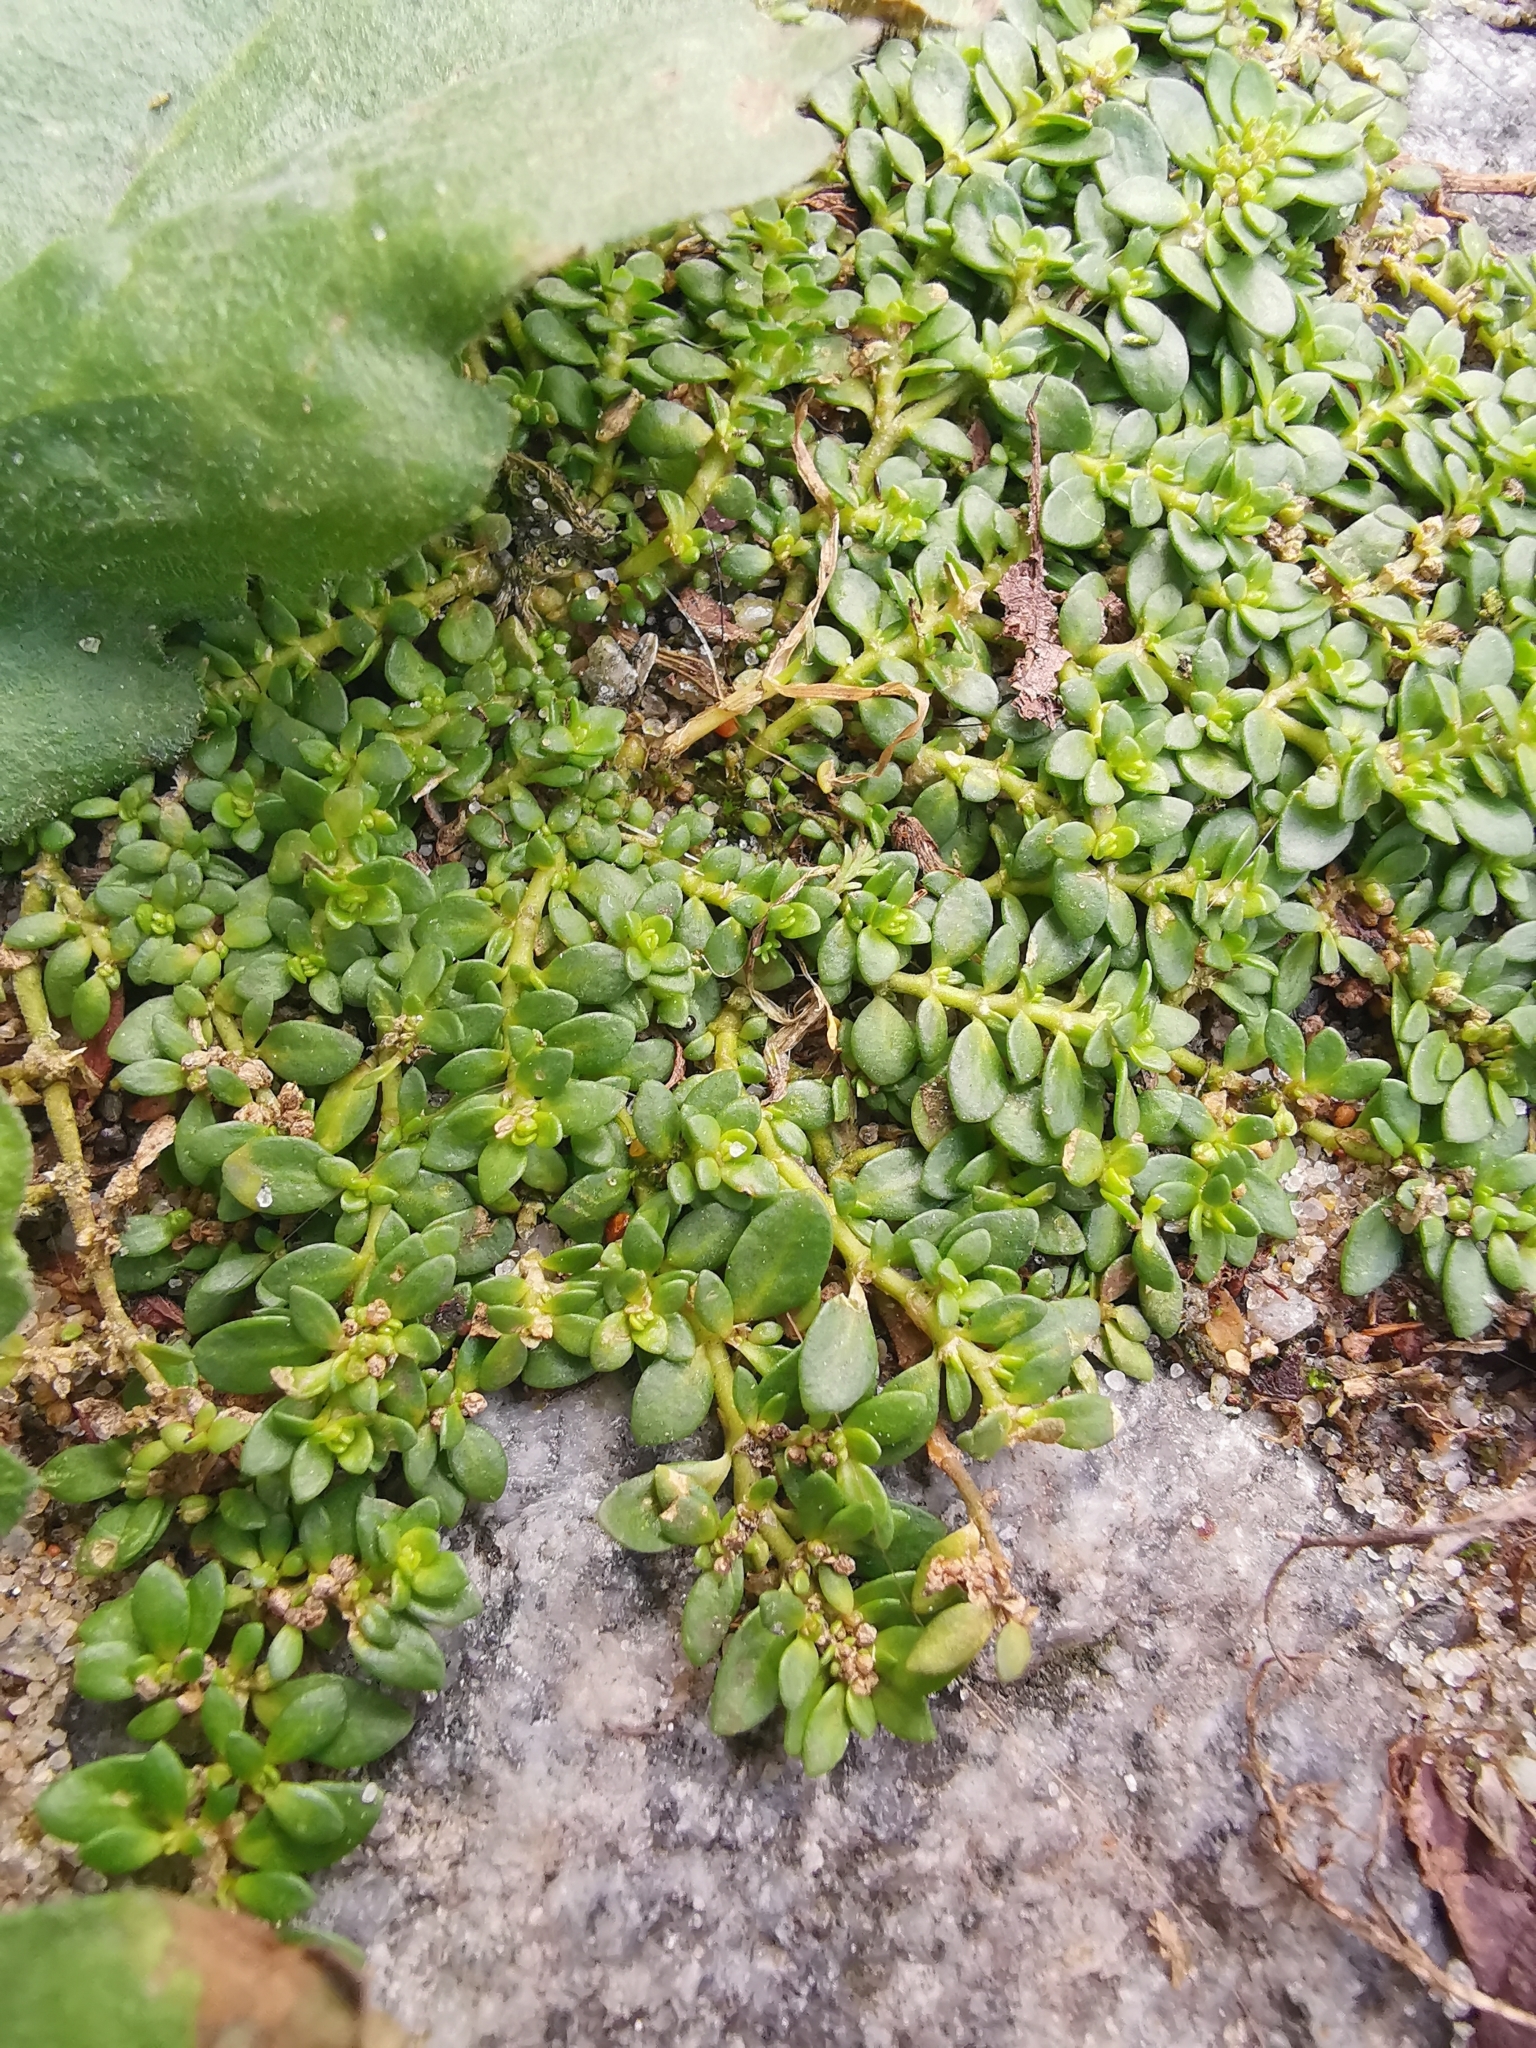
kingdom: Plantae
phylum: Tracheophyta
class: Magnoliopsida
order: Caryophyllales
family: Caryophyllaceae
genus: Herniaria
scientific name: Herniaria glabra
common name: Smooth rupturewort
